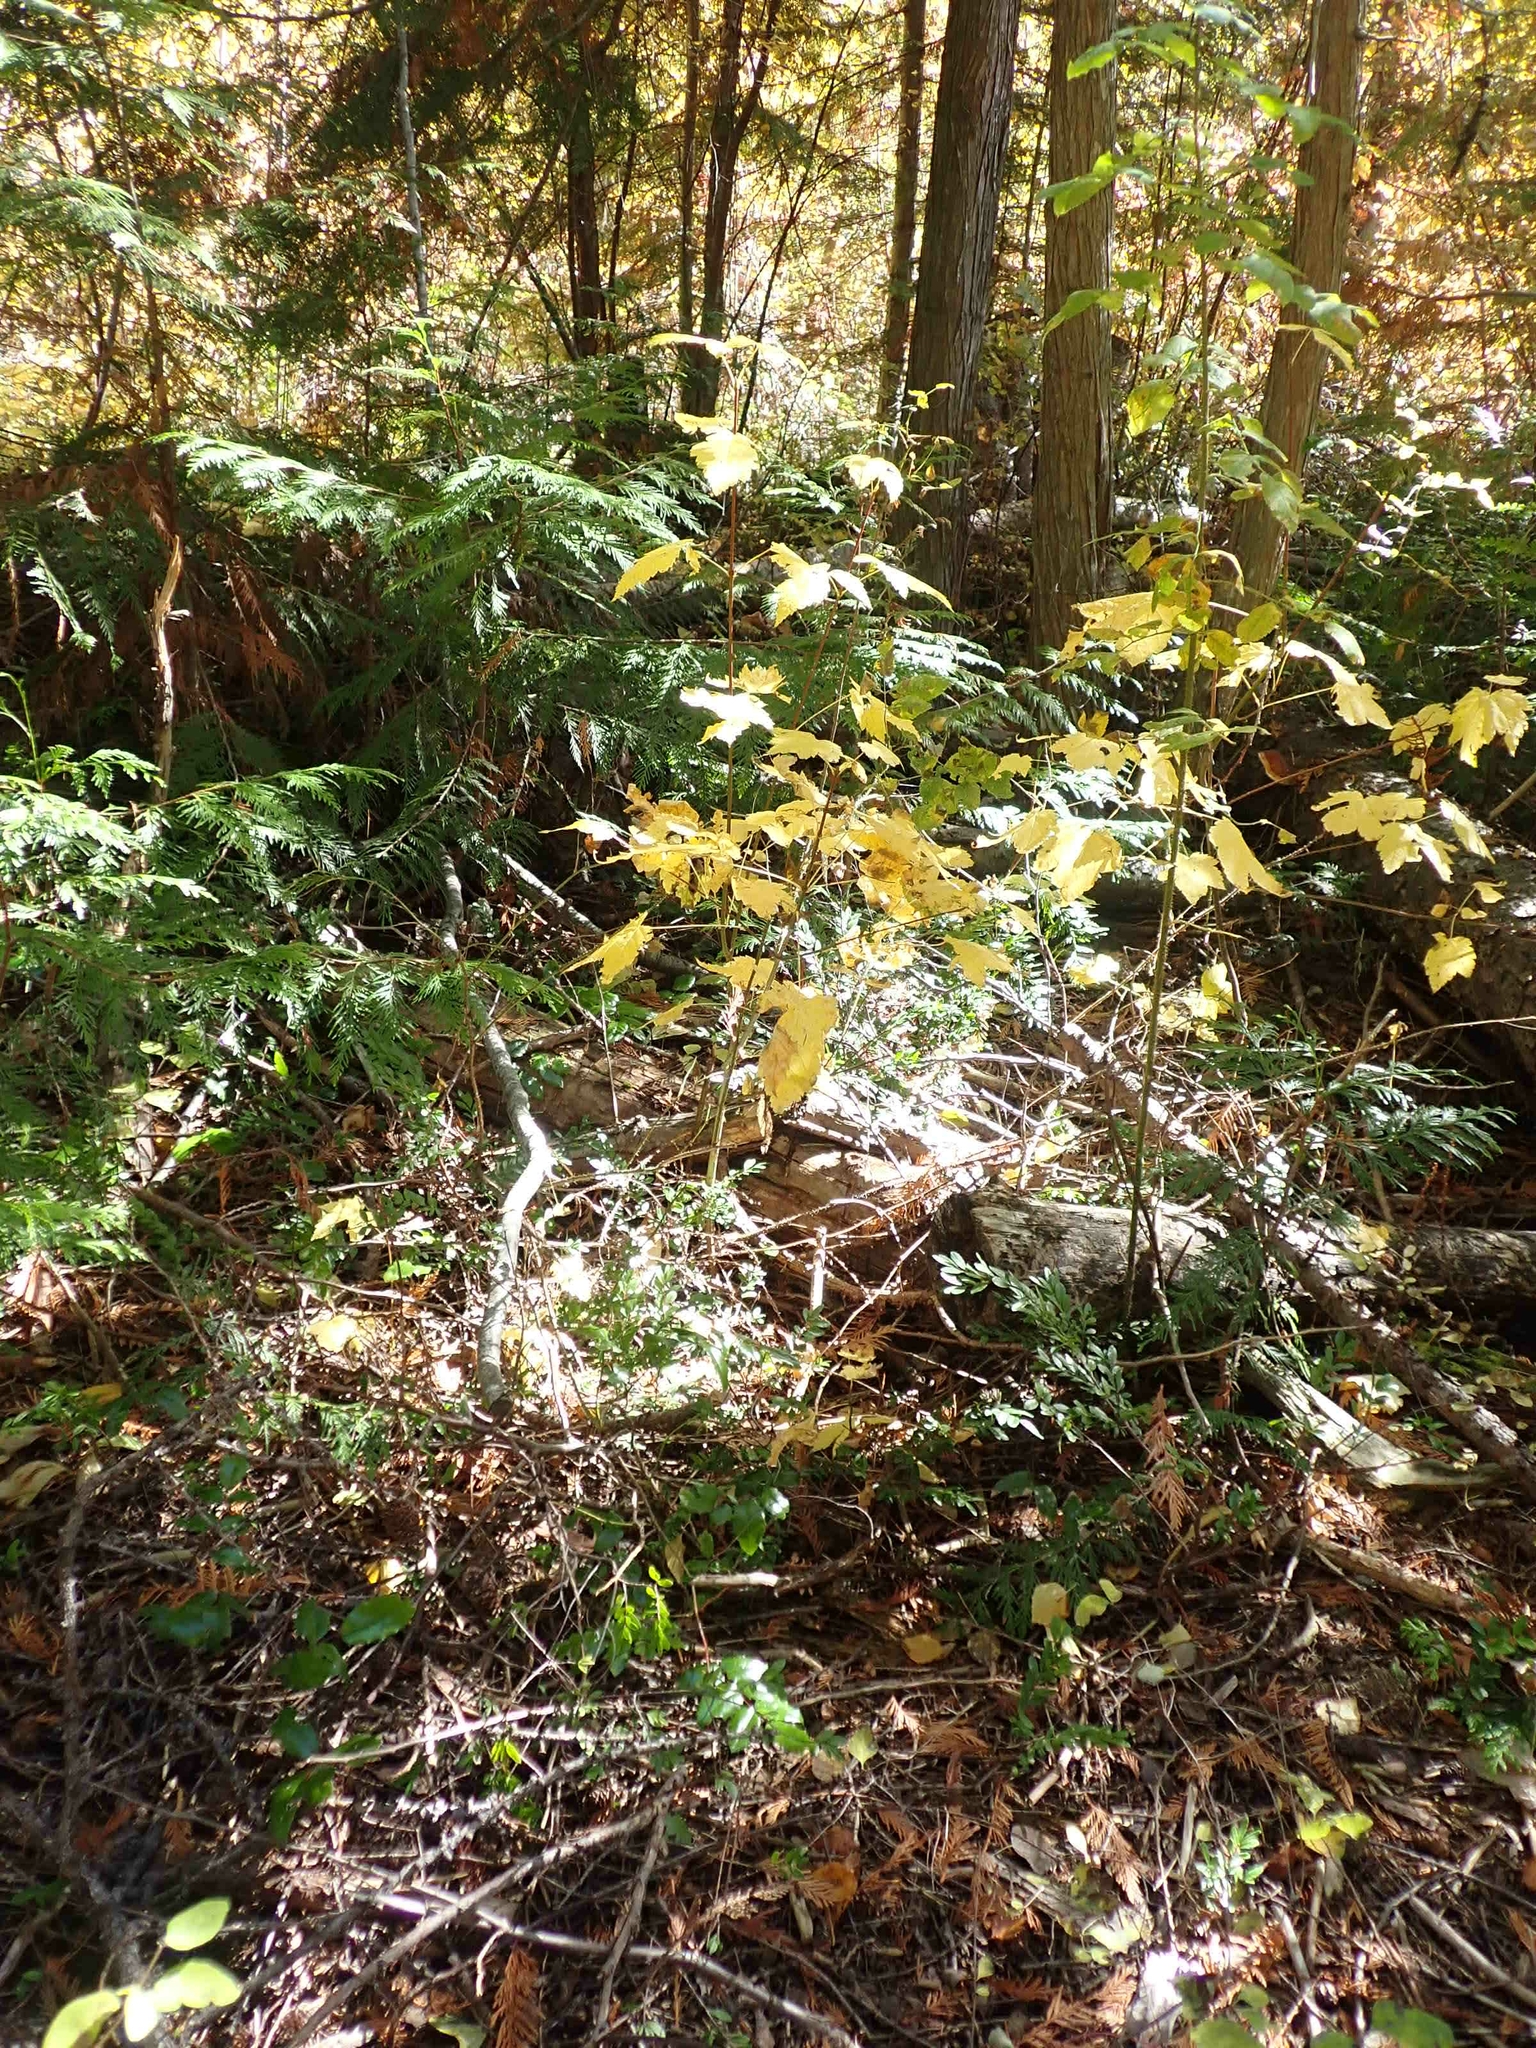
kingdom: Plantae
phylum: Tracheophyta
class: Magnoliopsida
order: Sapindales
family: Sapindaceae
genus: Acer
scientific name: Acer glabrum
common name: Rocky mountain maple
